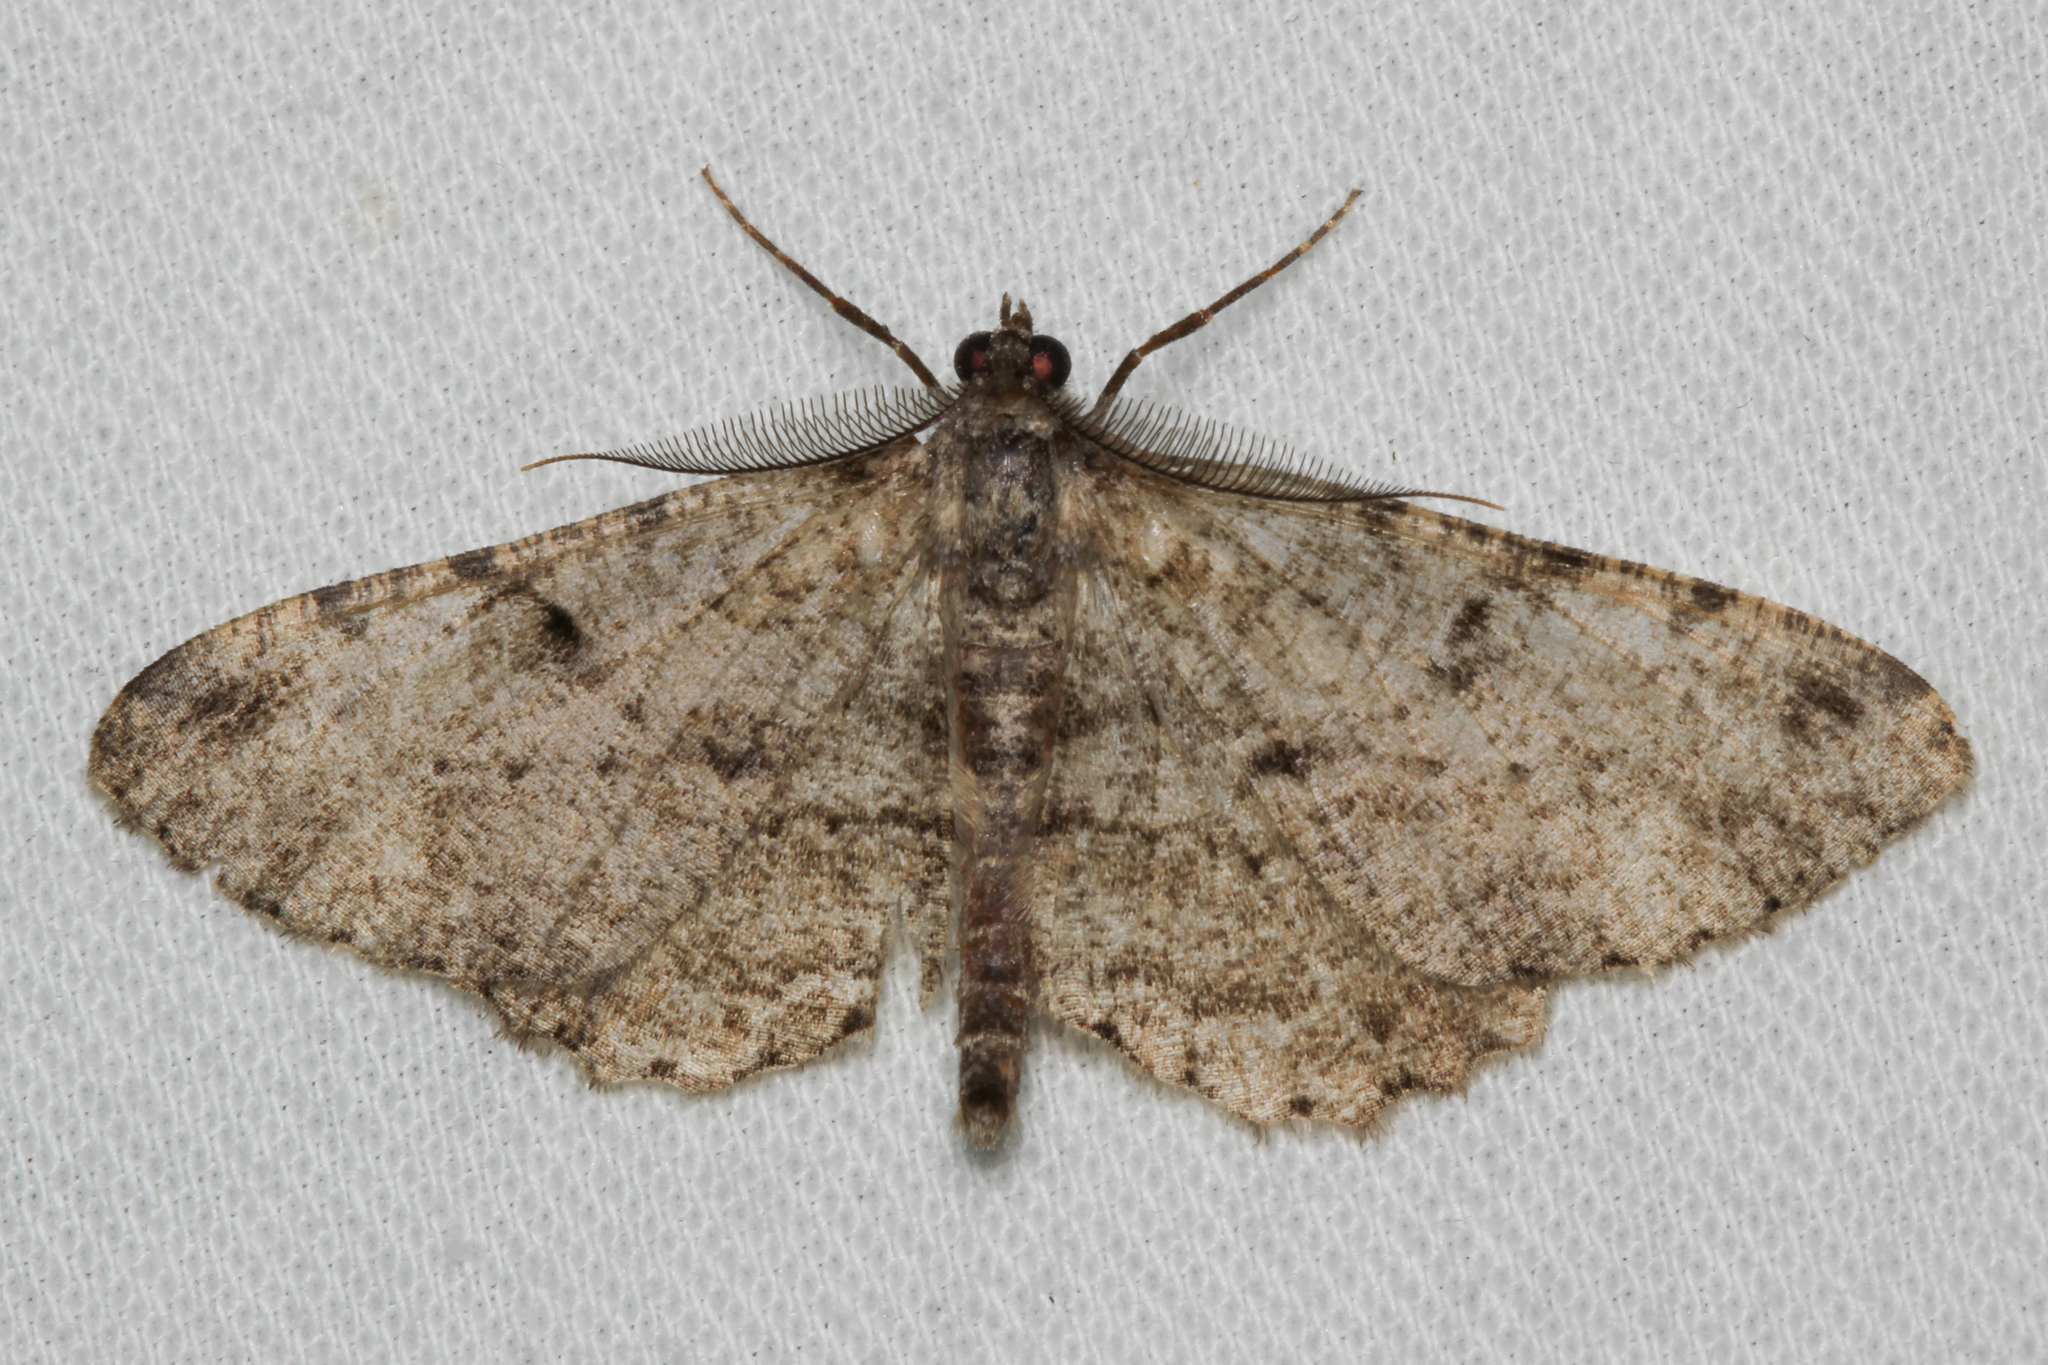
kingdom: Animalia
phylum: Arthropoda
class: Insecta
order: Lepidoptera
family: Geometridae
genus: Peribatodes
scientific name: Peribatodes rhomboidaria
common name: Willow beauty
